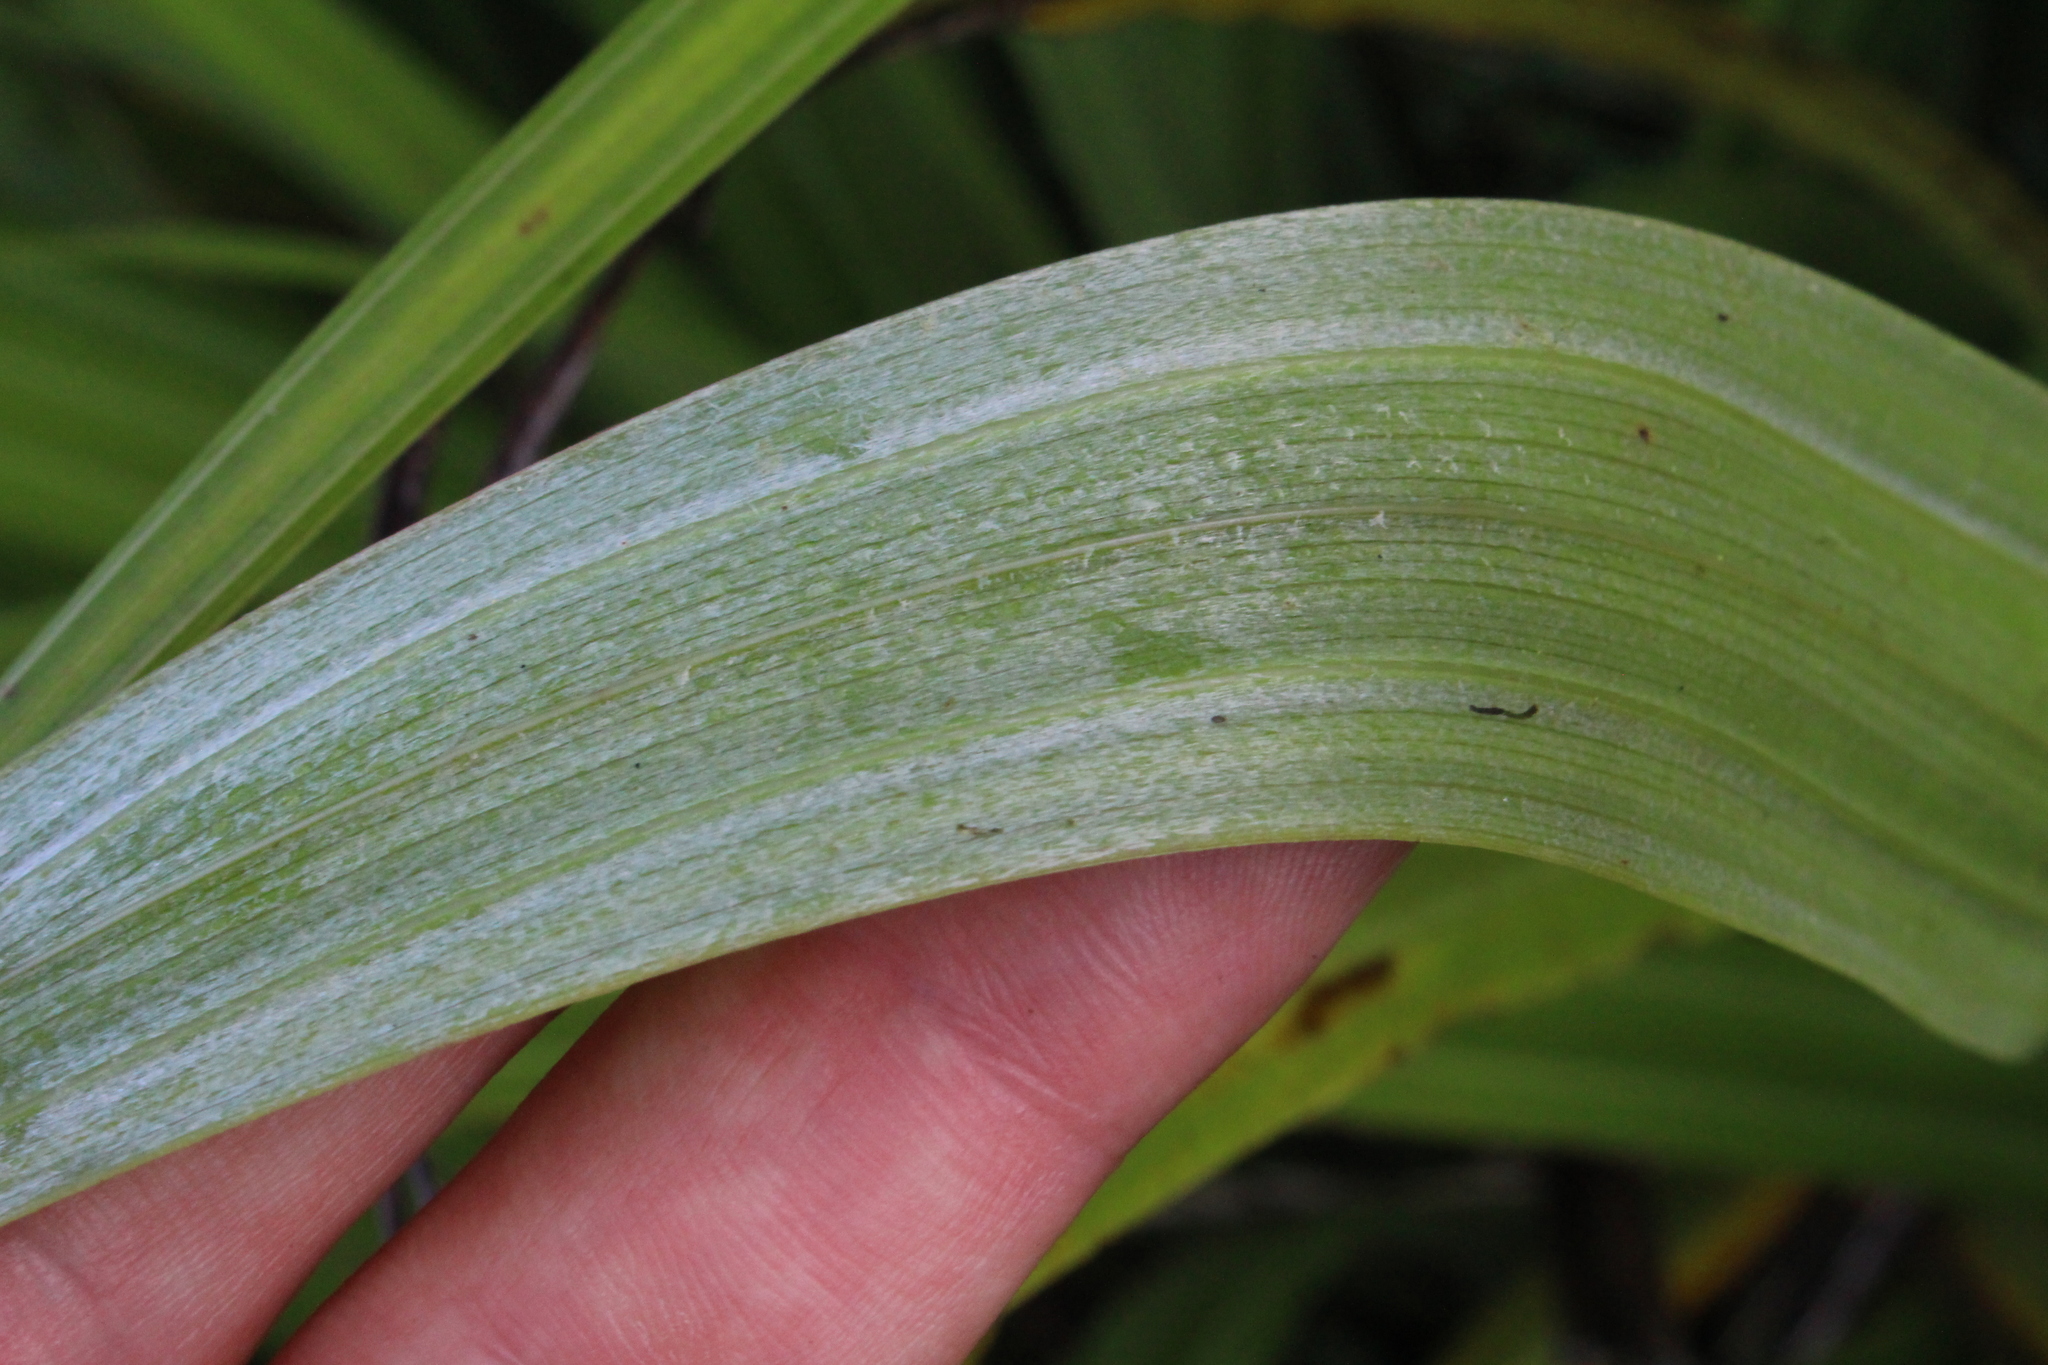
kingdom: Plantae
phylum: Tracheophyta
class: Liliopsida
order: Asparagales
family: Asteliaceae
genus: Astelia
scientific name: Astelia fragrans
